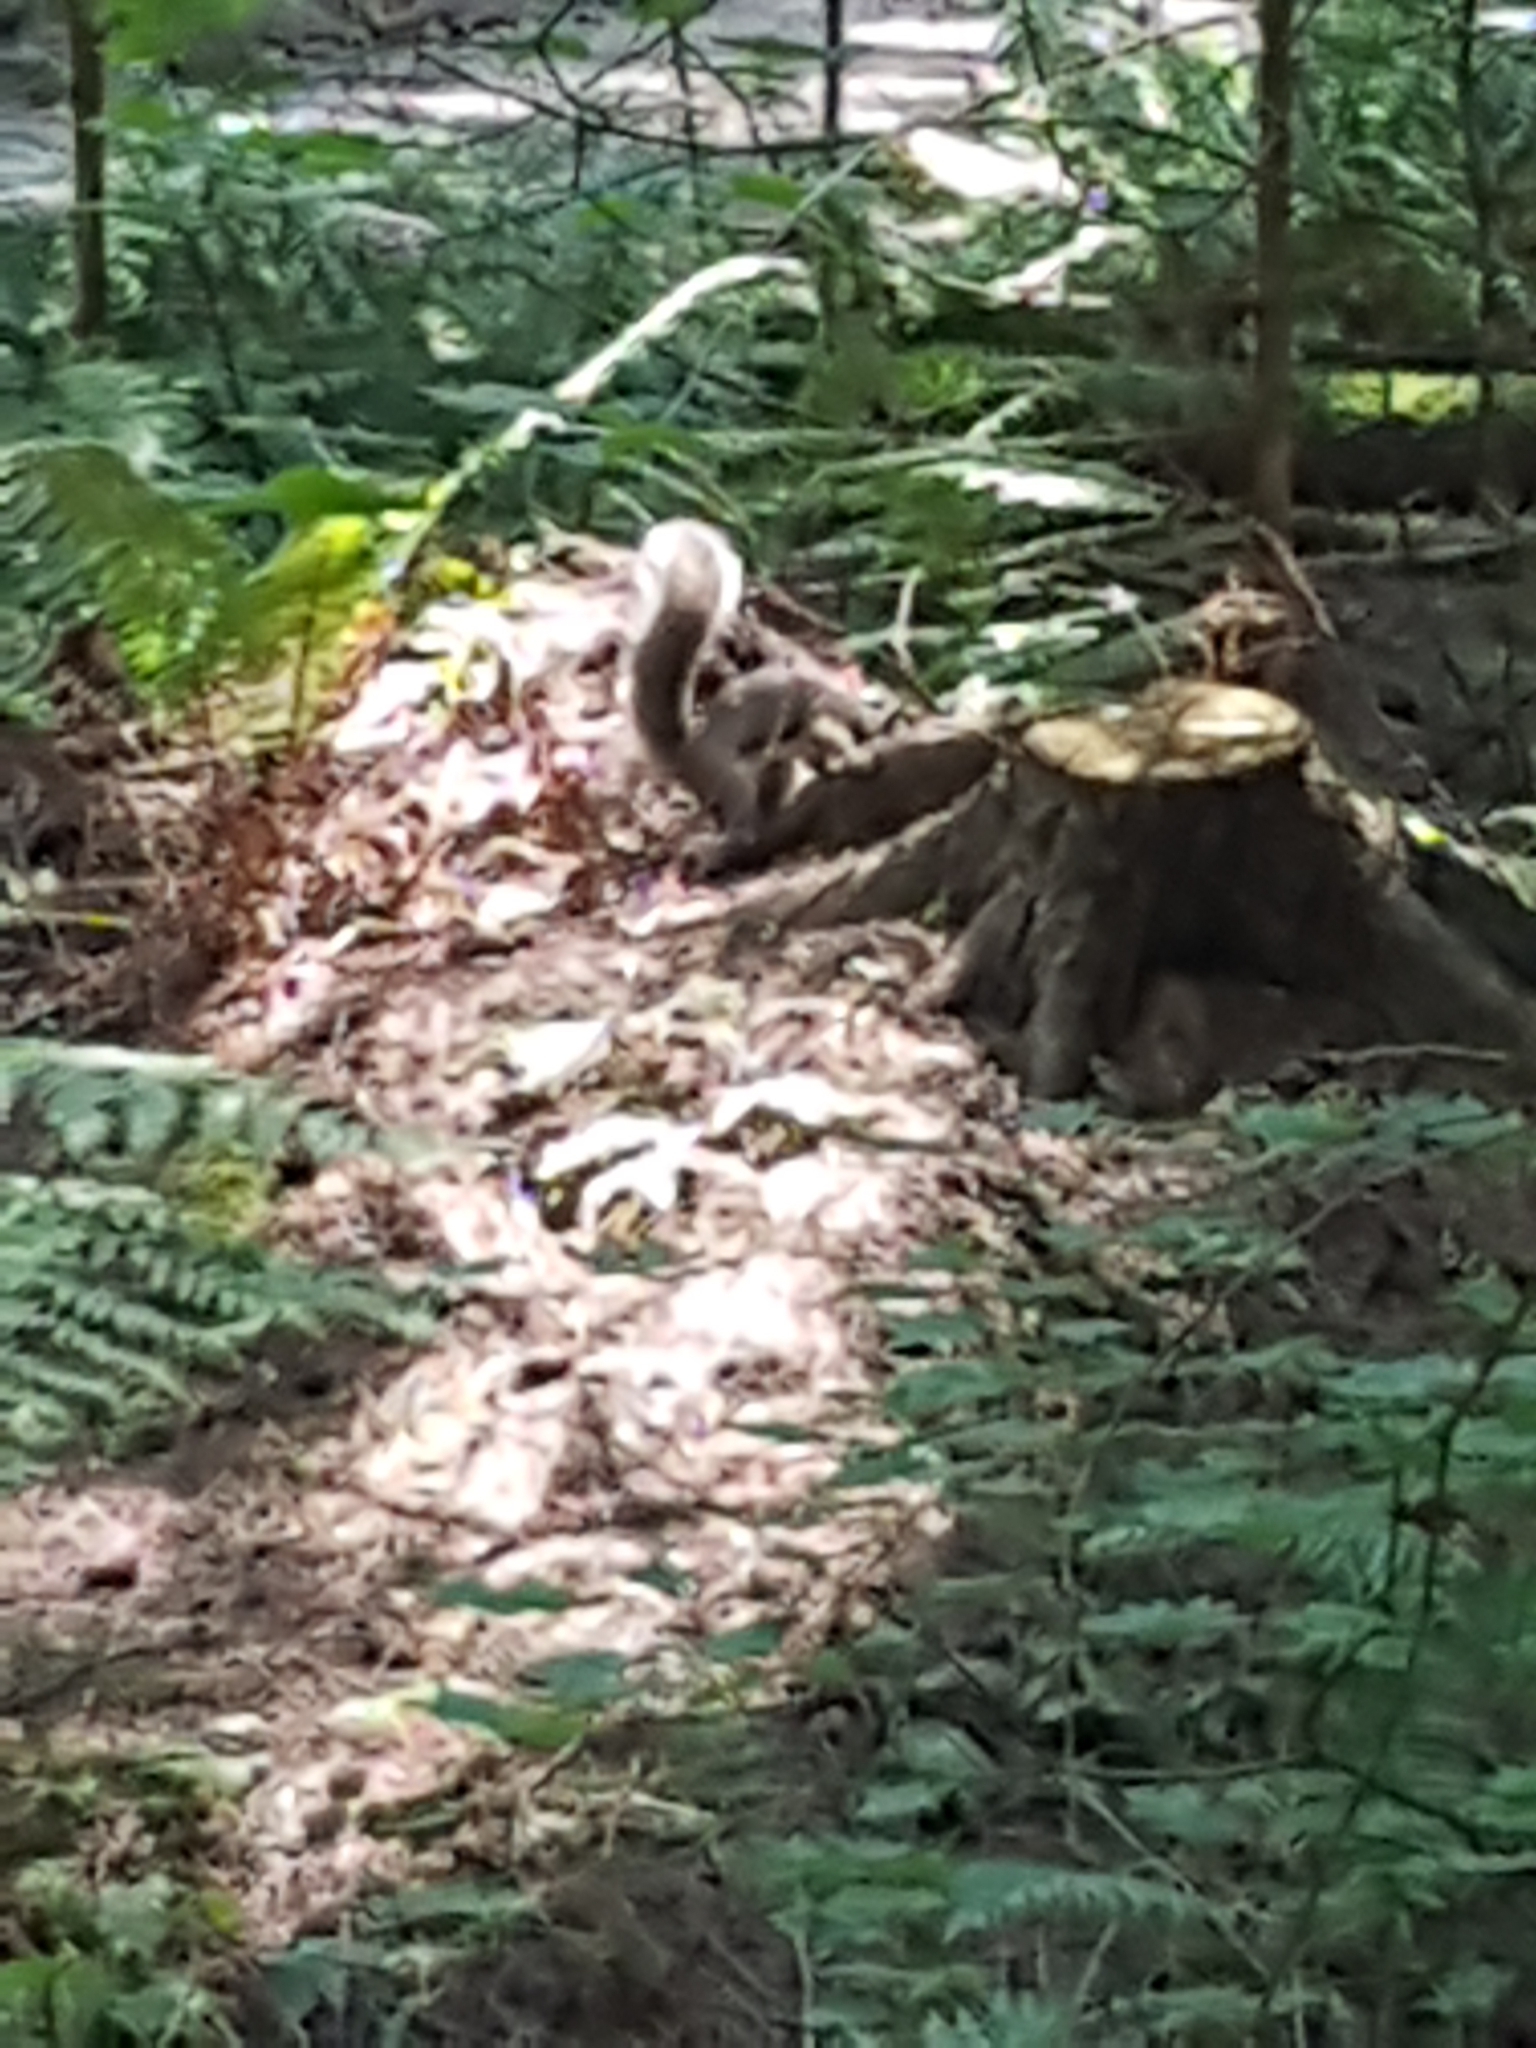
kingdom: Animalia
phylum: Chordata
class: Mammalia
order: Rodentia
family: Sciuridae
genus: Sciurus
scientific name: Sciurus carolinensis
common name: Eastern gray squirrel
